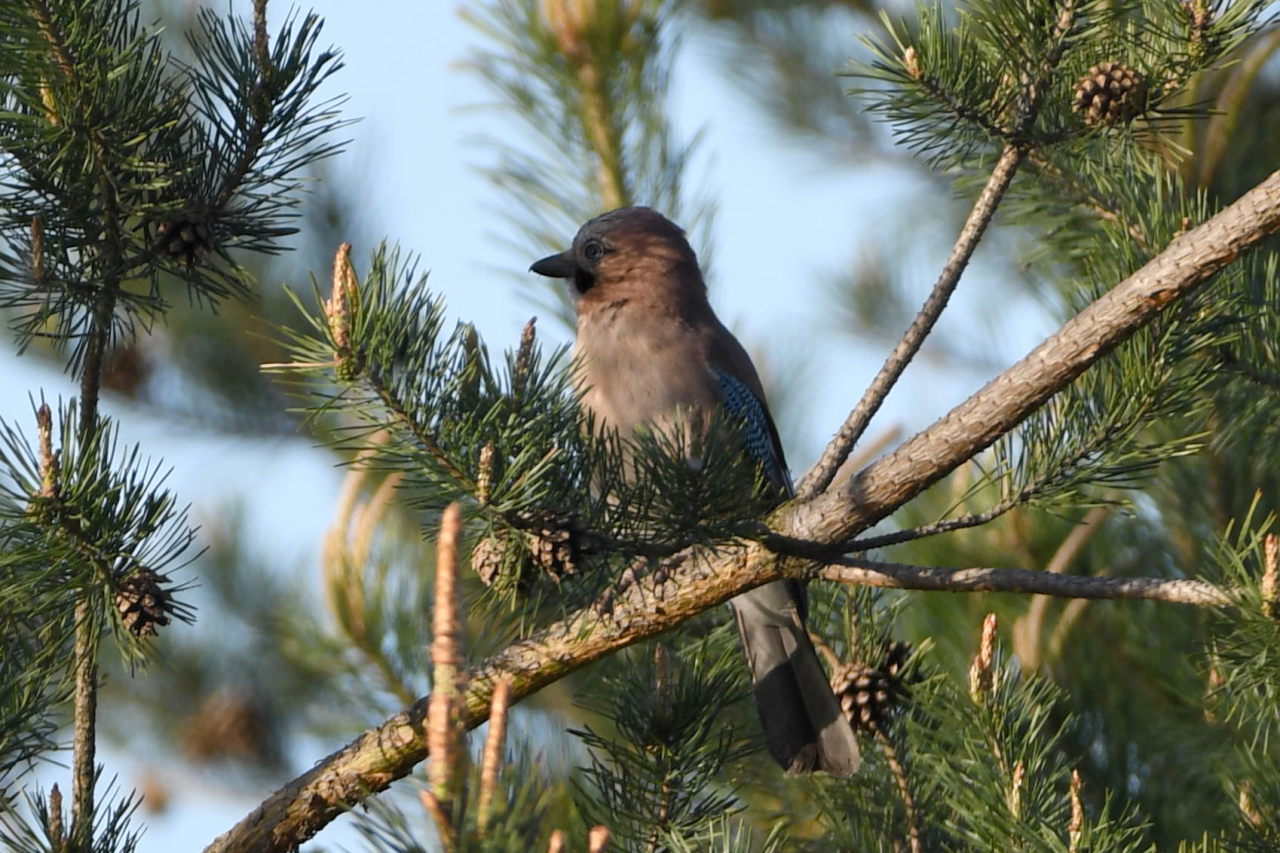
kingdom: Animalia
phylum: Chordata
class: Aves
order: Passeriformes
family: Corvidae
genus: Garrulus
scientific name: Garrulus glandarius
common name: Eurasian jay
